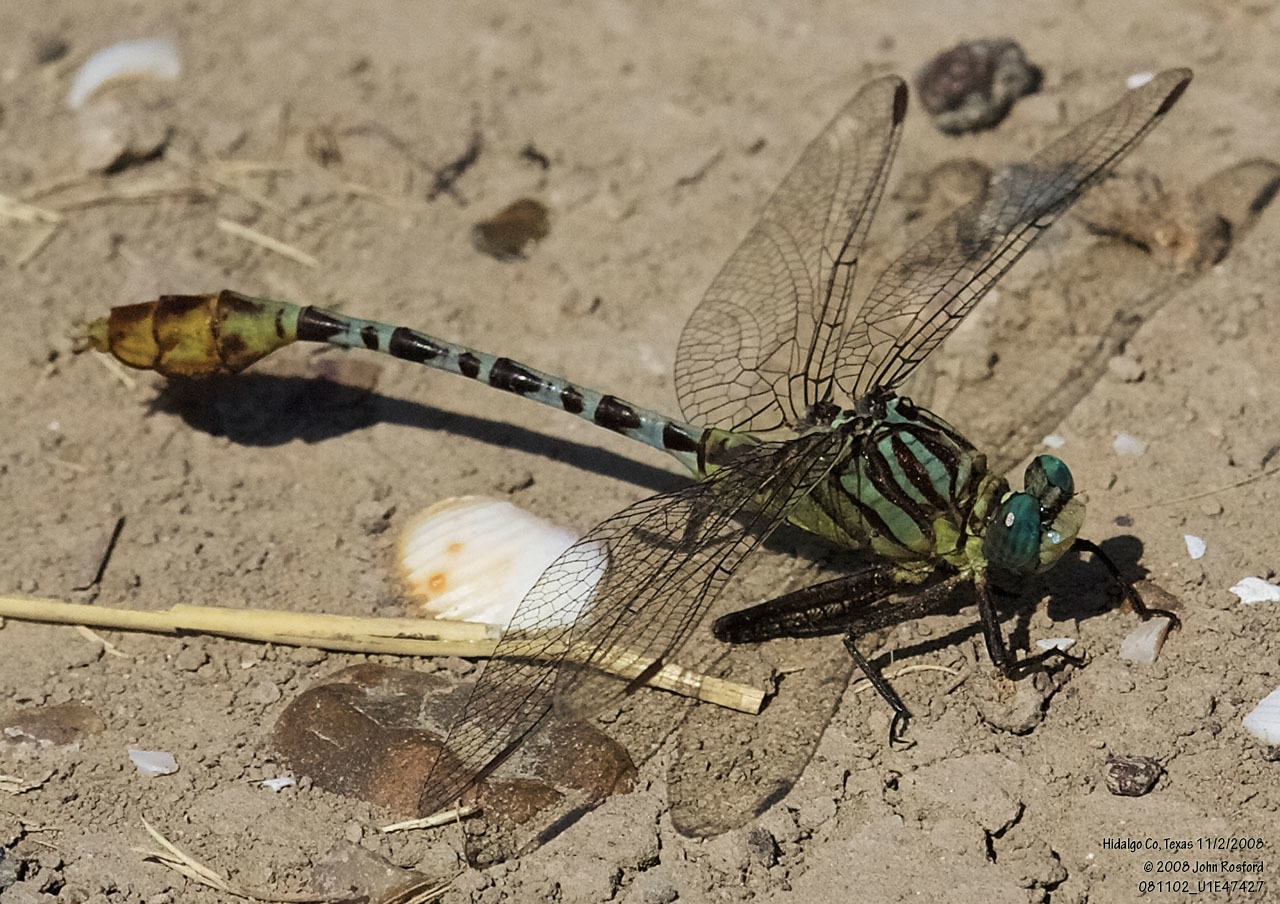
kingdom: Animalia
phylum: Arthropoda
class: Insecta
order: Odonata
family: Gomphidae
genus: Dromogomphus
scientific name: Dromogomphus spoliatus
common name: Flag-tailed spinyleg
